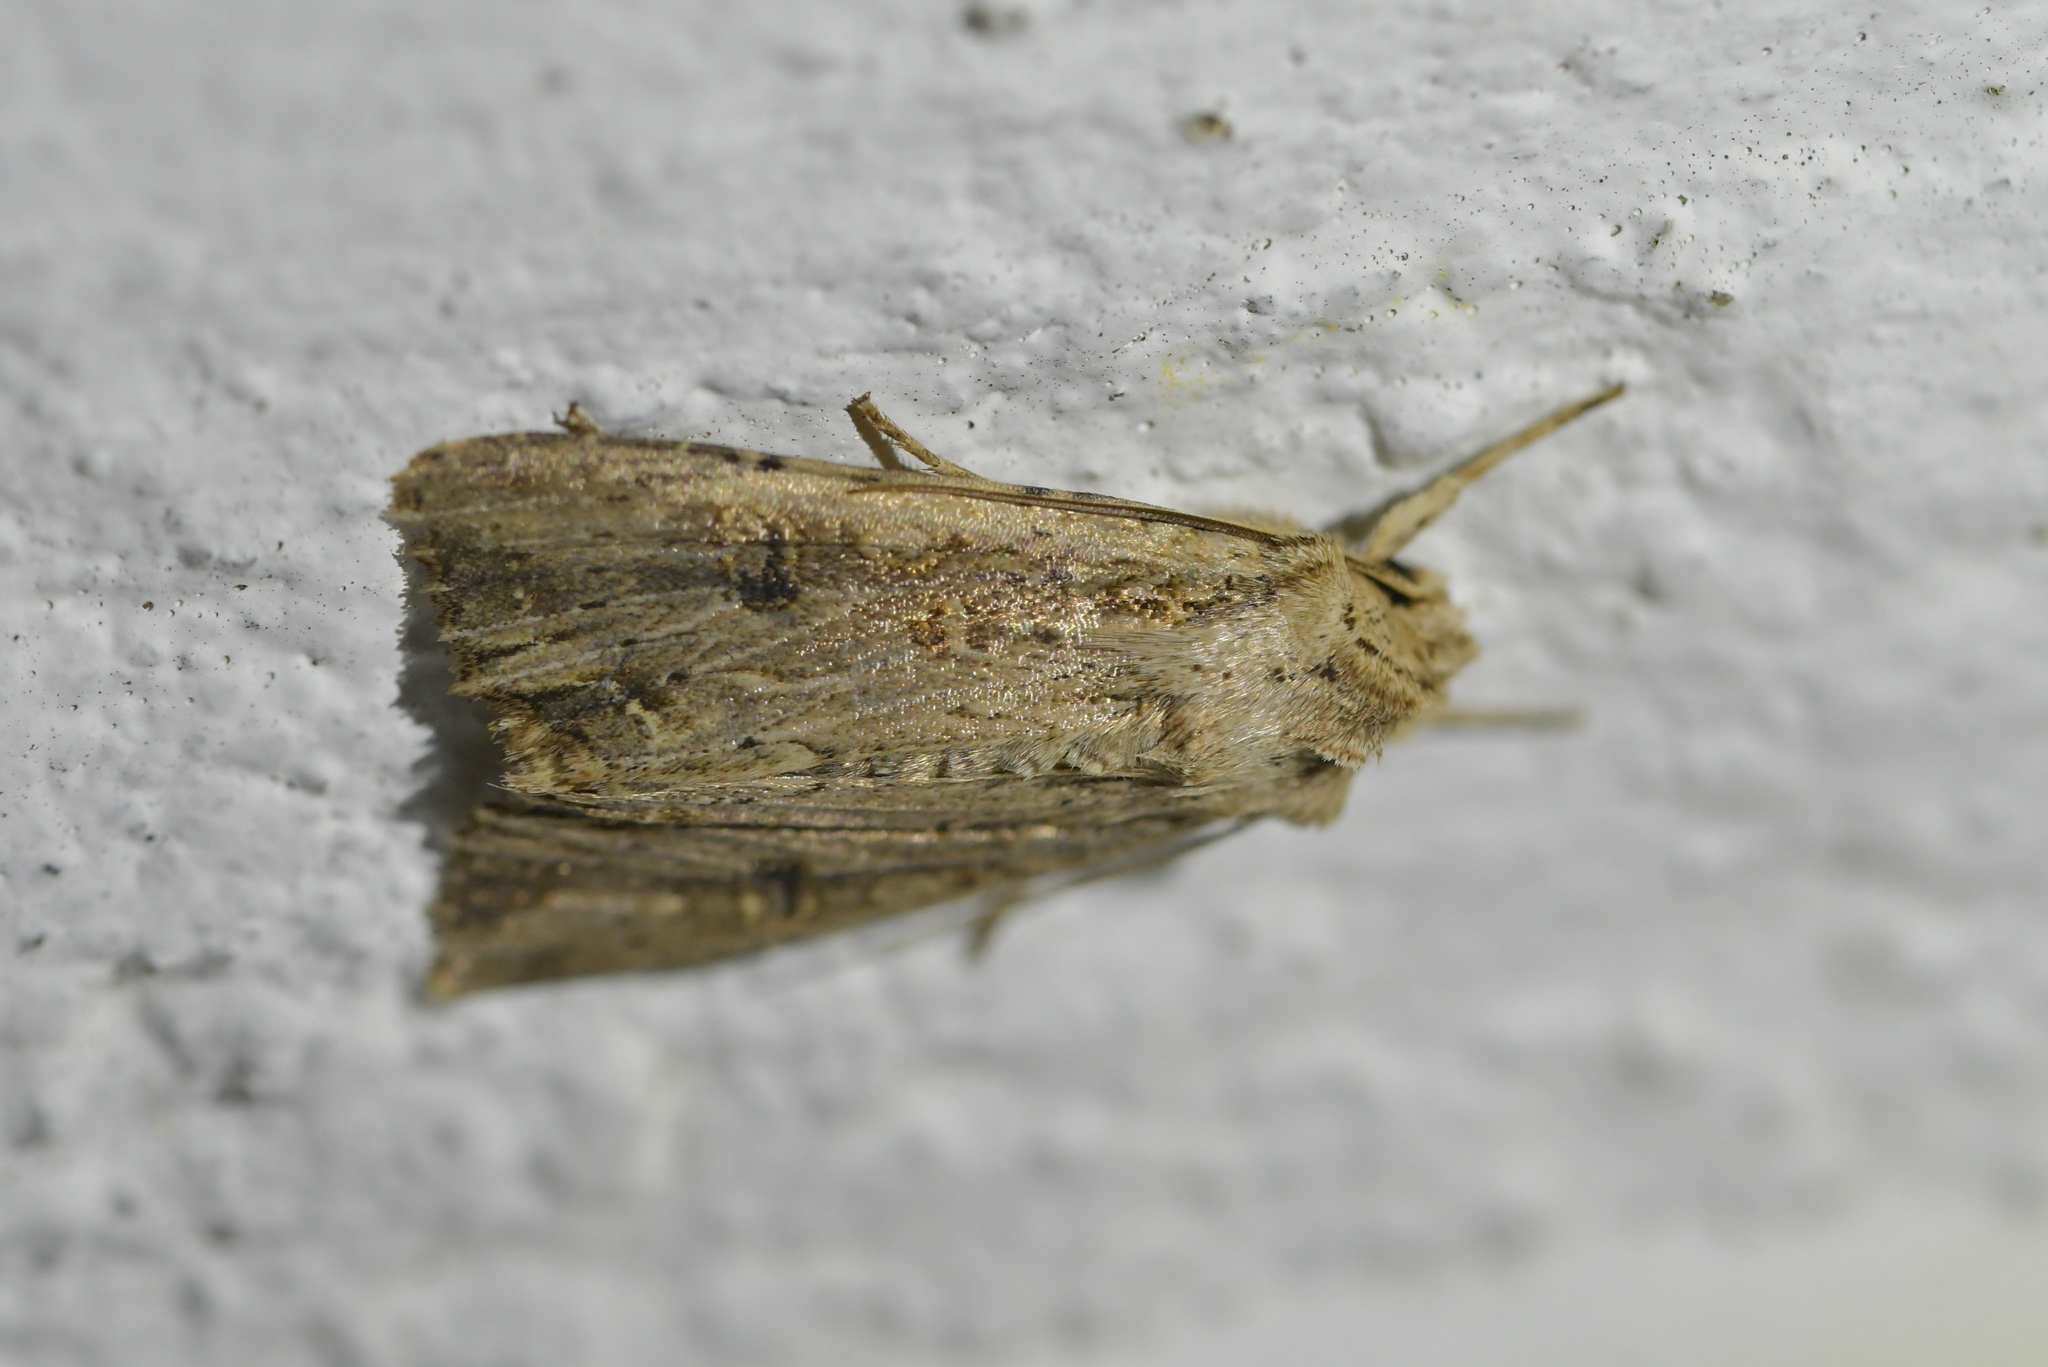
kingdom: Animalia
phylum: Arthropoda
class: Insecta
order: Lepidoptera
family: Noctuidae
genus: Ichneutica
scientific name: Ichneutica lignana
